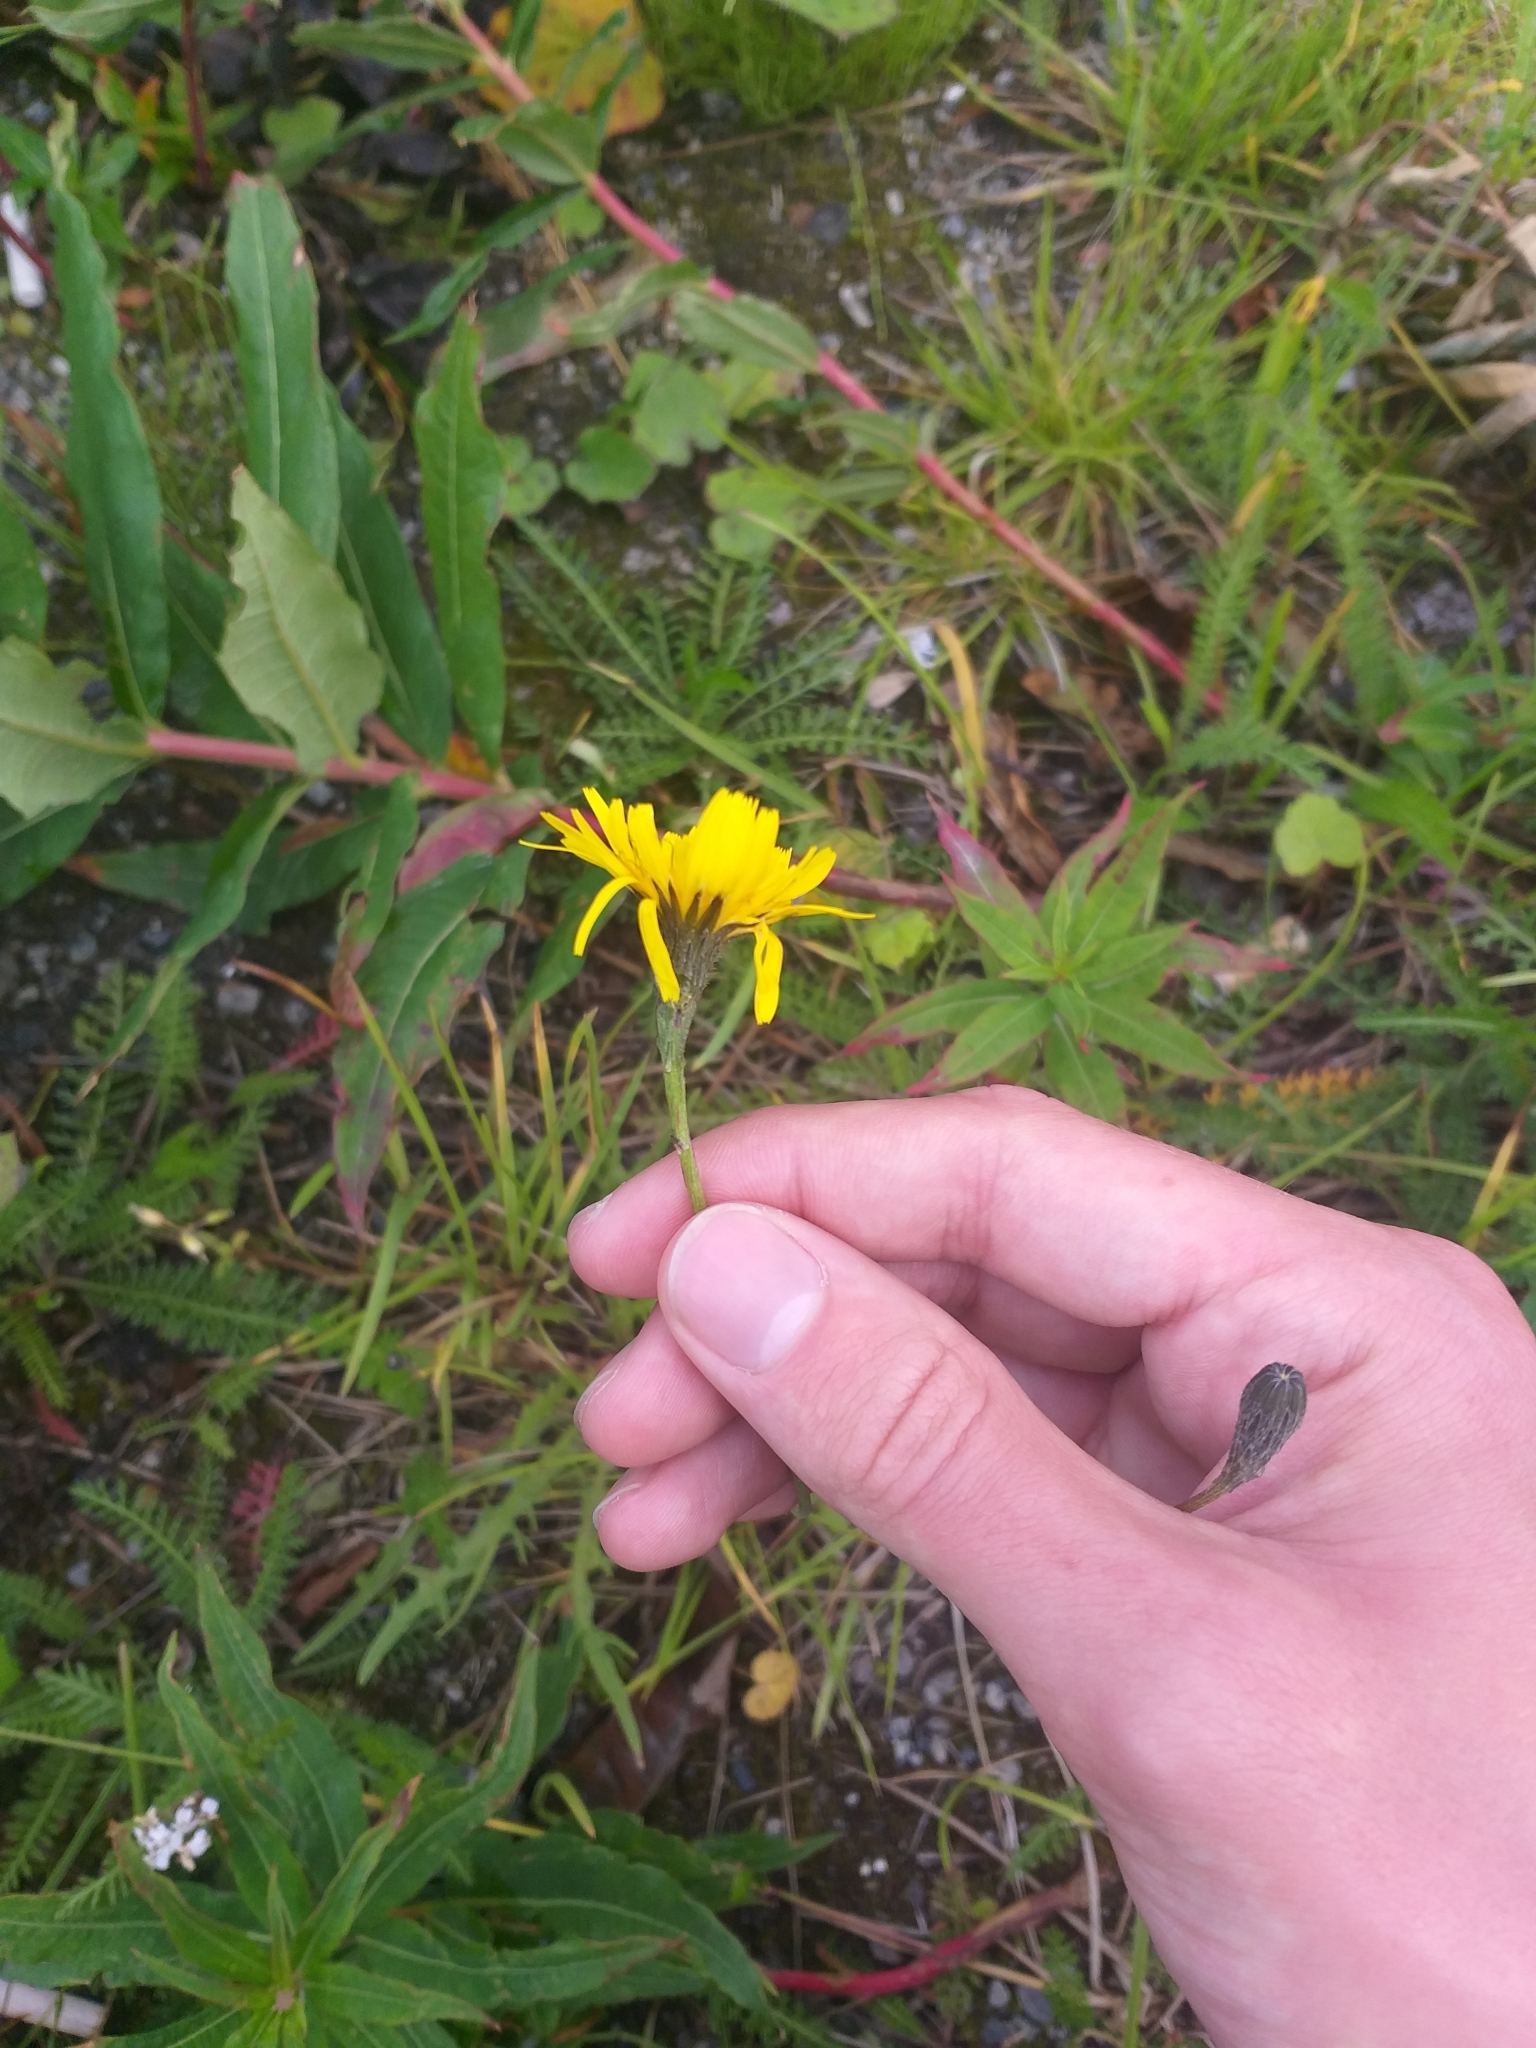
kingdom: Plantae
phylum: Tracheophyta
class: Magnoliopsida
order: Asterales
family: Asteraceae
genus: Scorzoneroides
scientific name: Scorzoneroides autumnalis
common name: Autumn hawkbit
